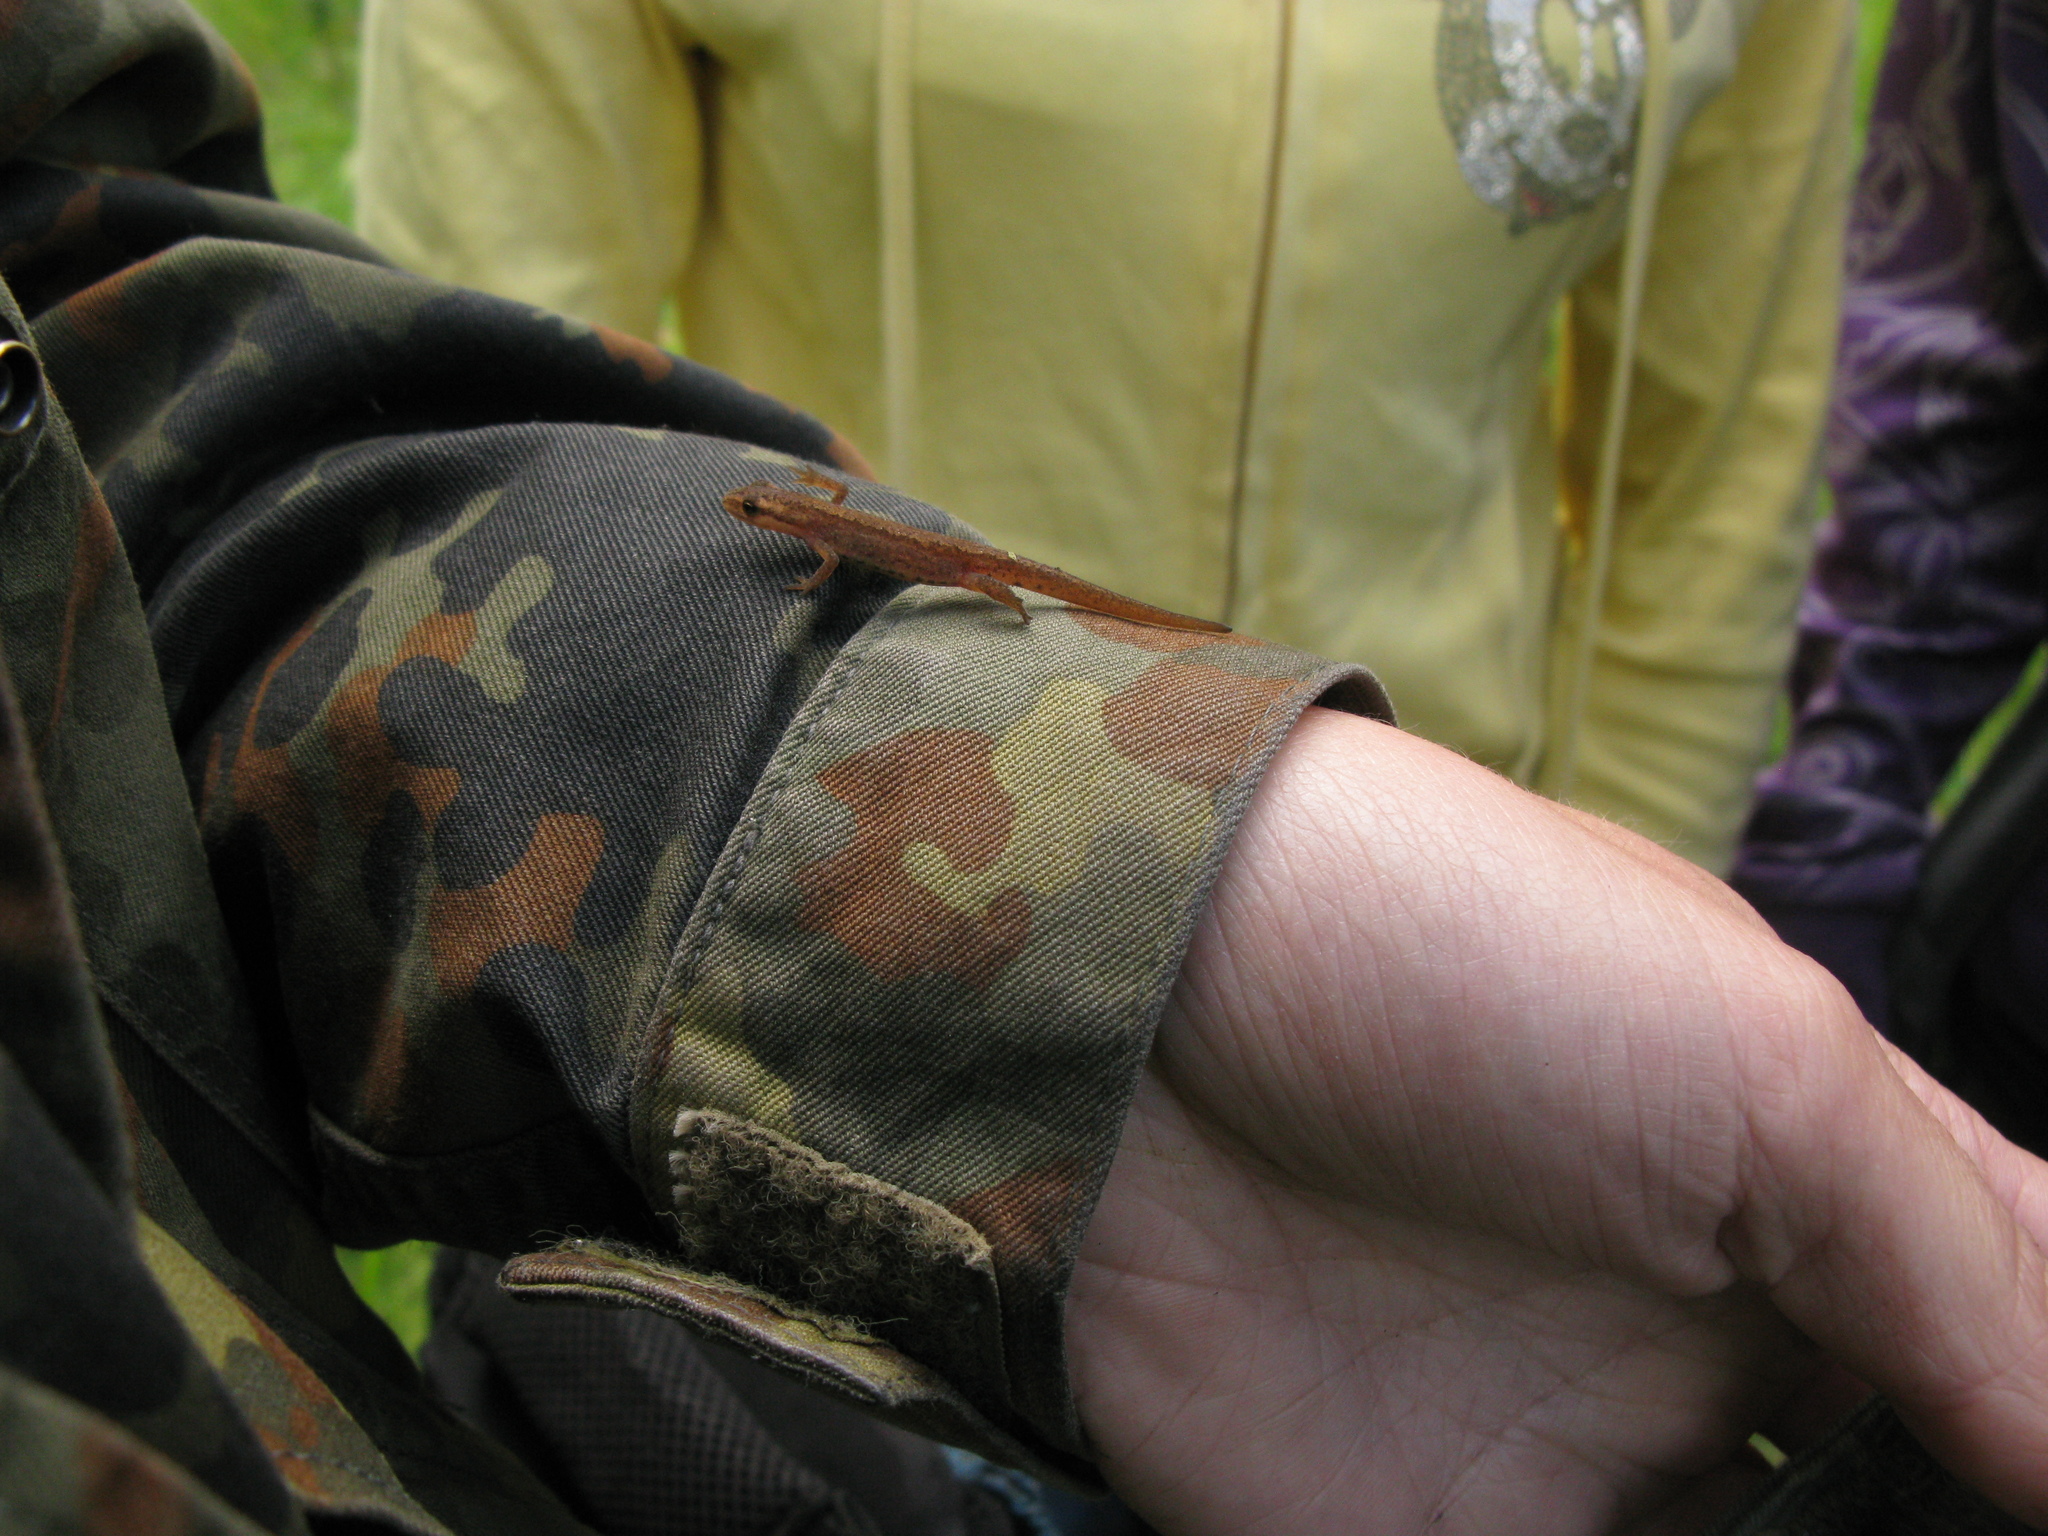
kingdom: Animalia
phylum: Chordata
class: Amphibia
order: Caudata
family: Salamandridae
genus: Lissotriton
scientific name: Lissotriton vulgaris
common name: Smooth newt
